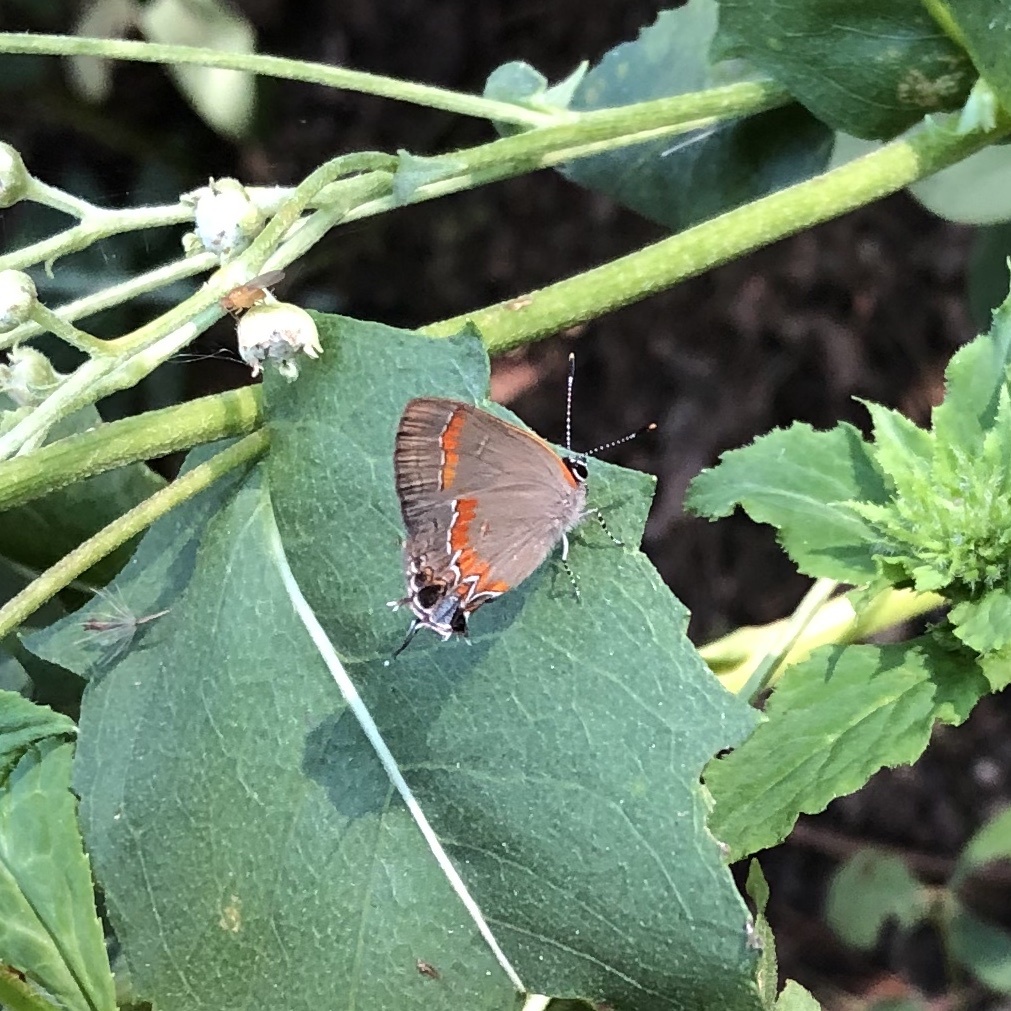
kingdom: Animalia
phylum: Arthropoda
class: Insecta
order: Lepidoptera
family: Lycaenidae
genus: Calycopis
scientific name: Calycopis cecrops
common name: Red-banded hairstreak
